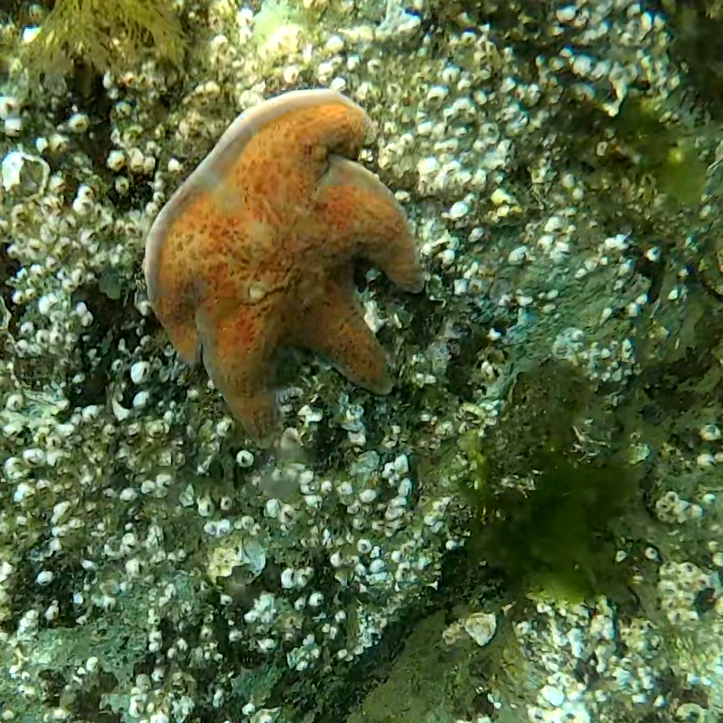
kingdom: Animalia
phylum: Echinodermata
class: Asteroidea
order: Valvatida
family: Asteropseidae
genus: Dermasterias
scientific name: Dermasterias imbricata
